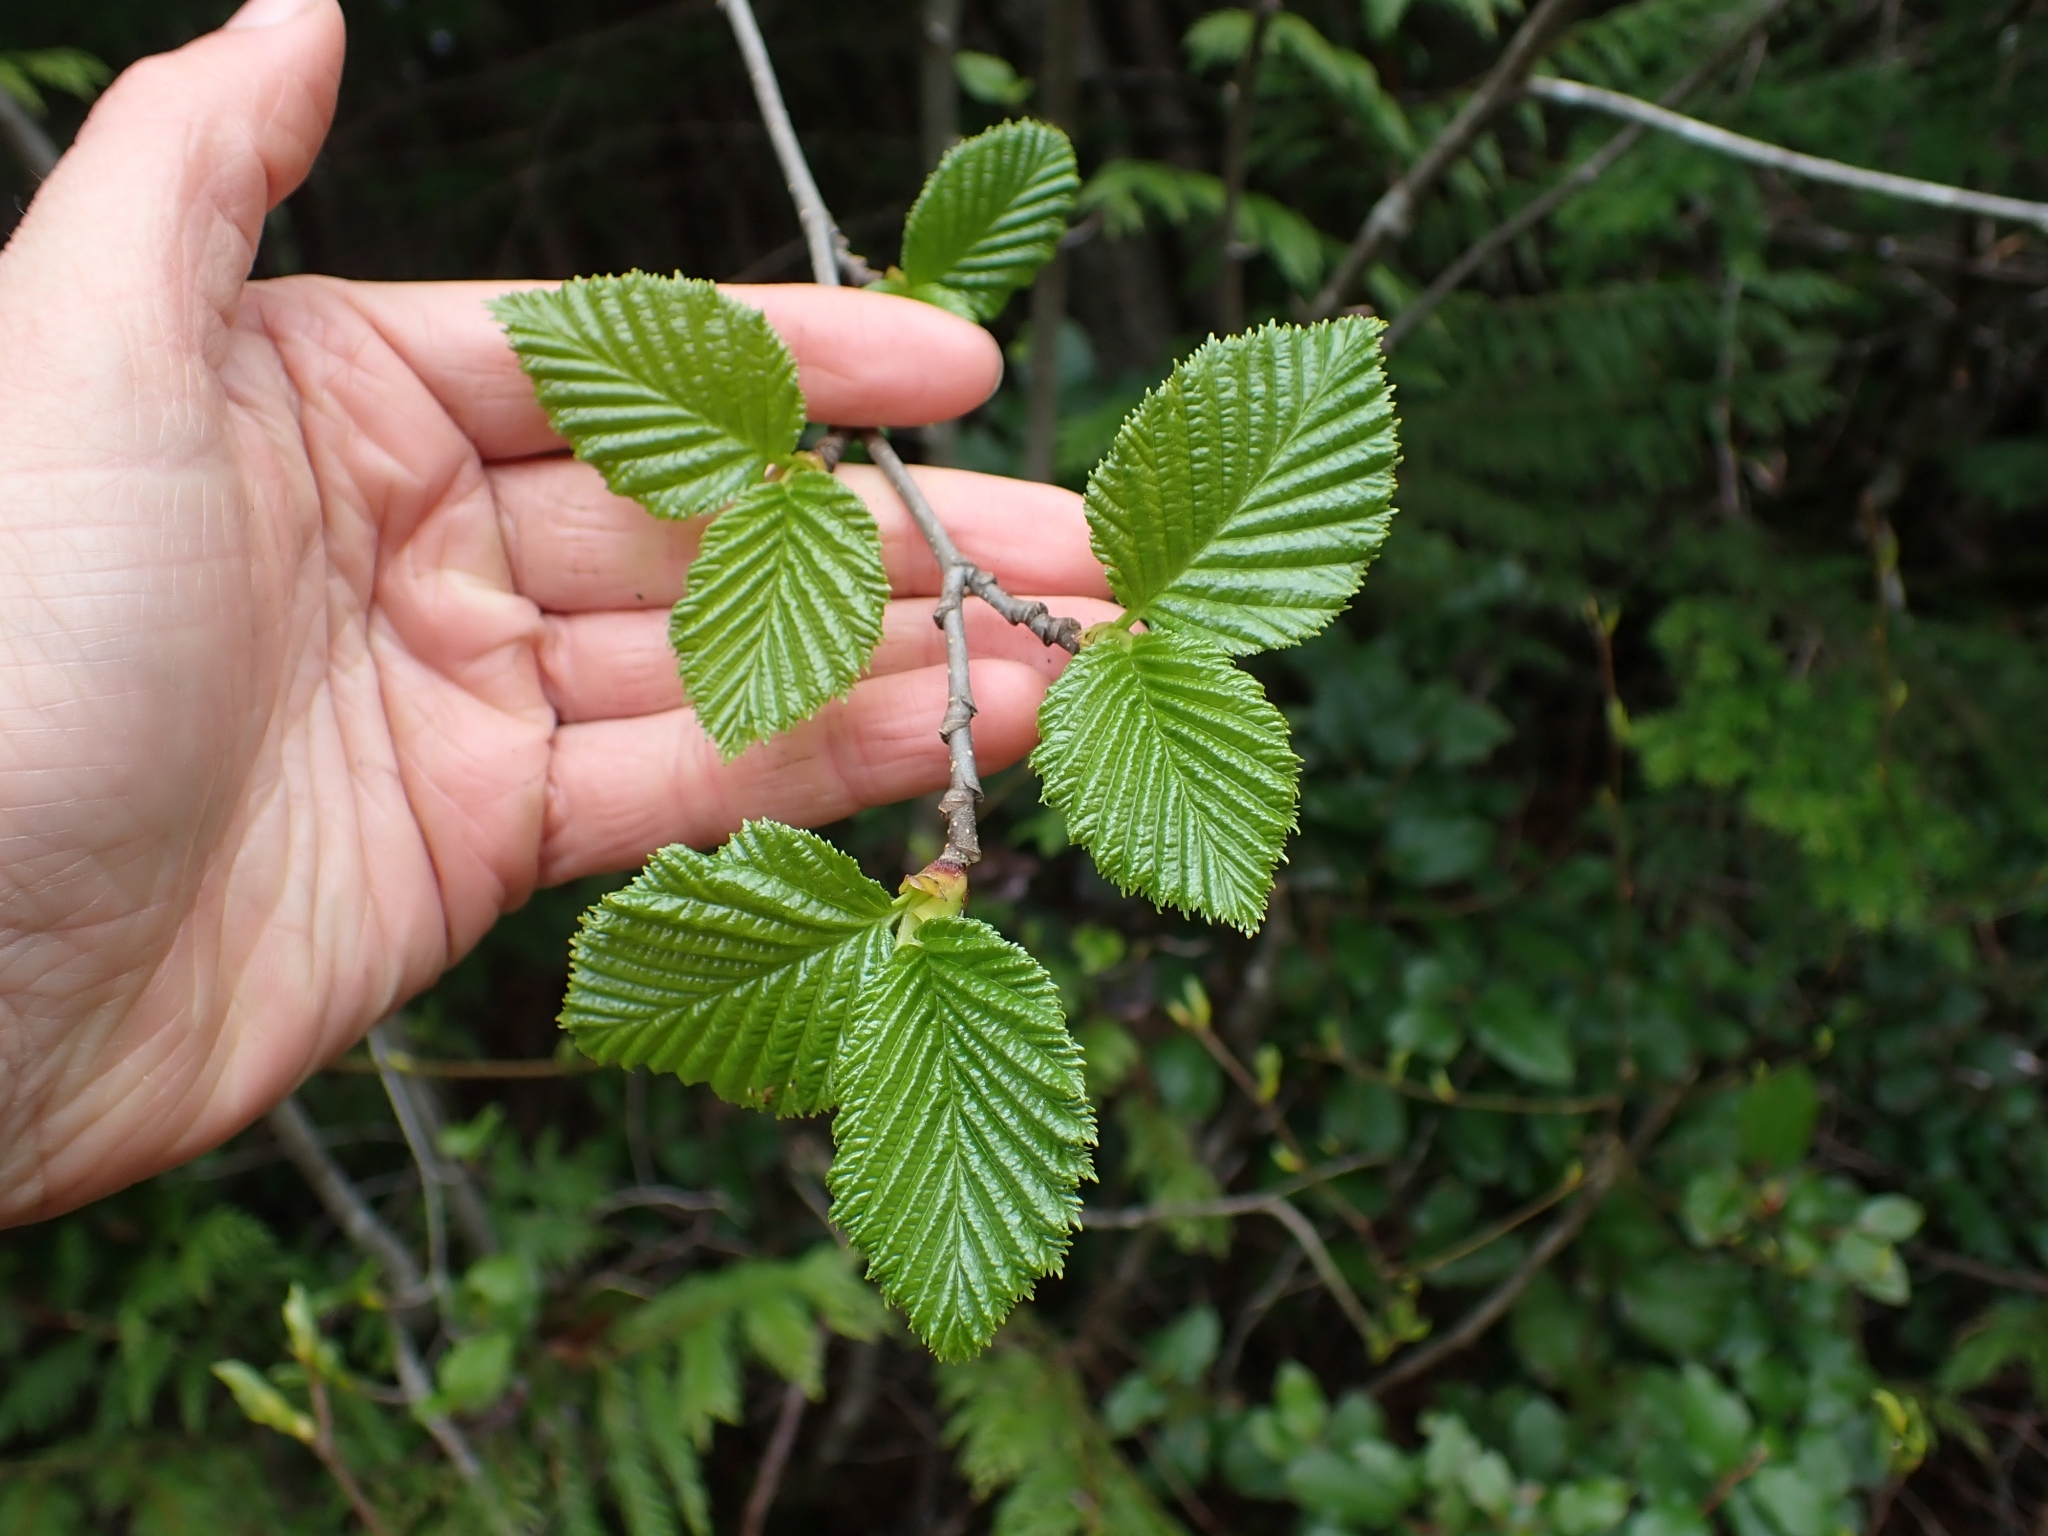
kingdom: Plantae
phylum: Tracheophyta
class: Magnoliopsida
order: Fagales
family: Betulaceae
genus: Alnus
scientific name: Alnus alnobetula
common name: Green alder
